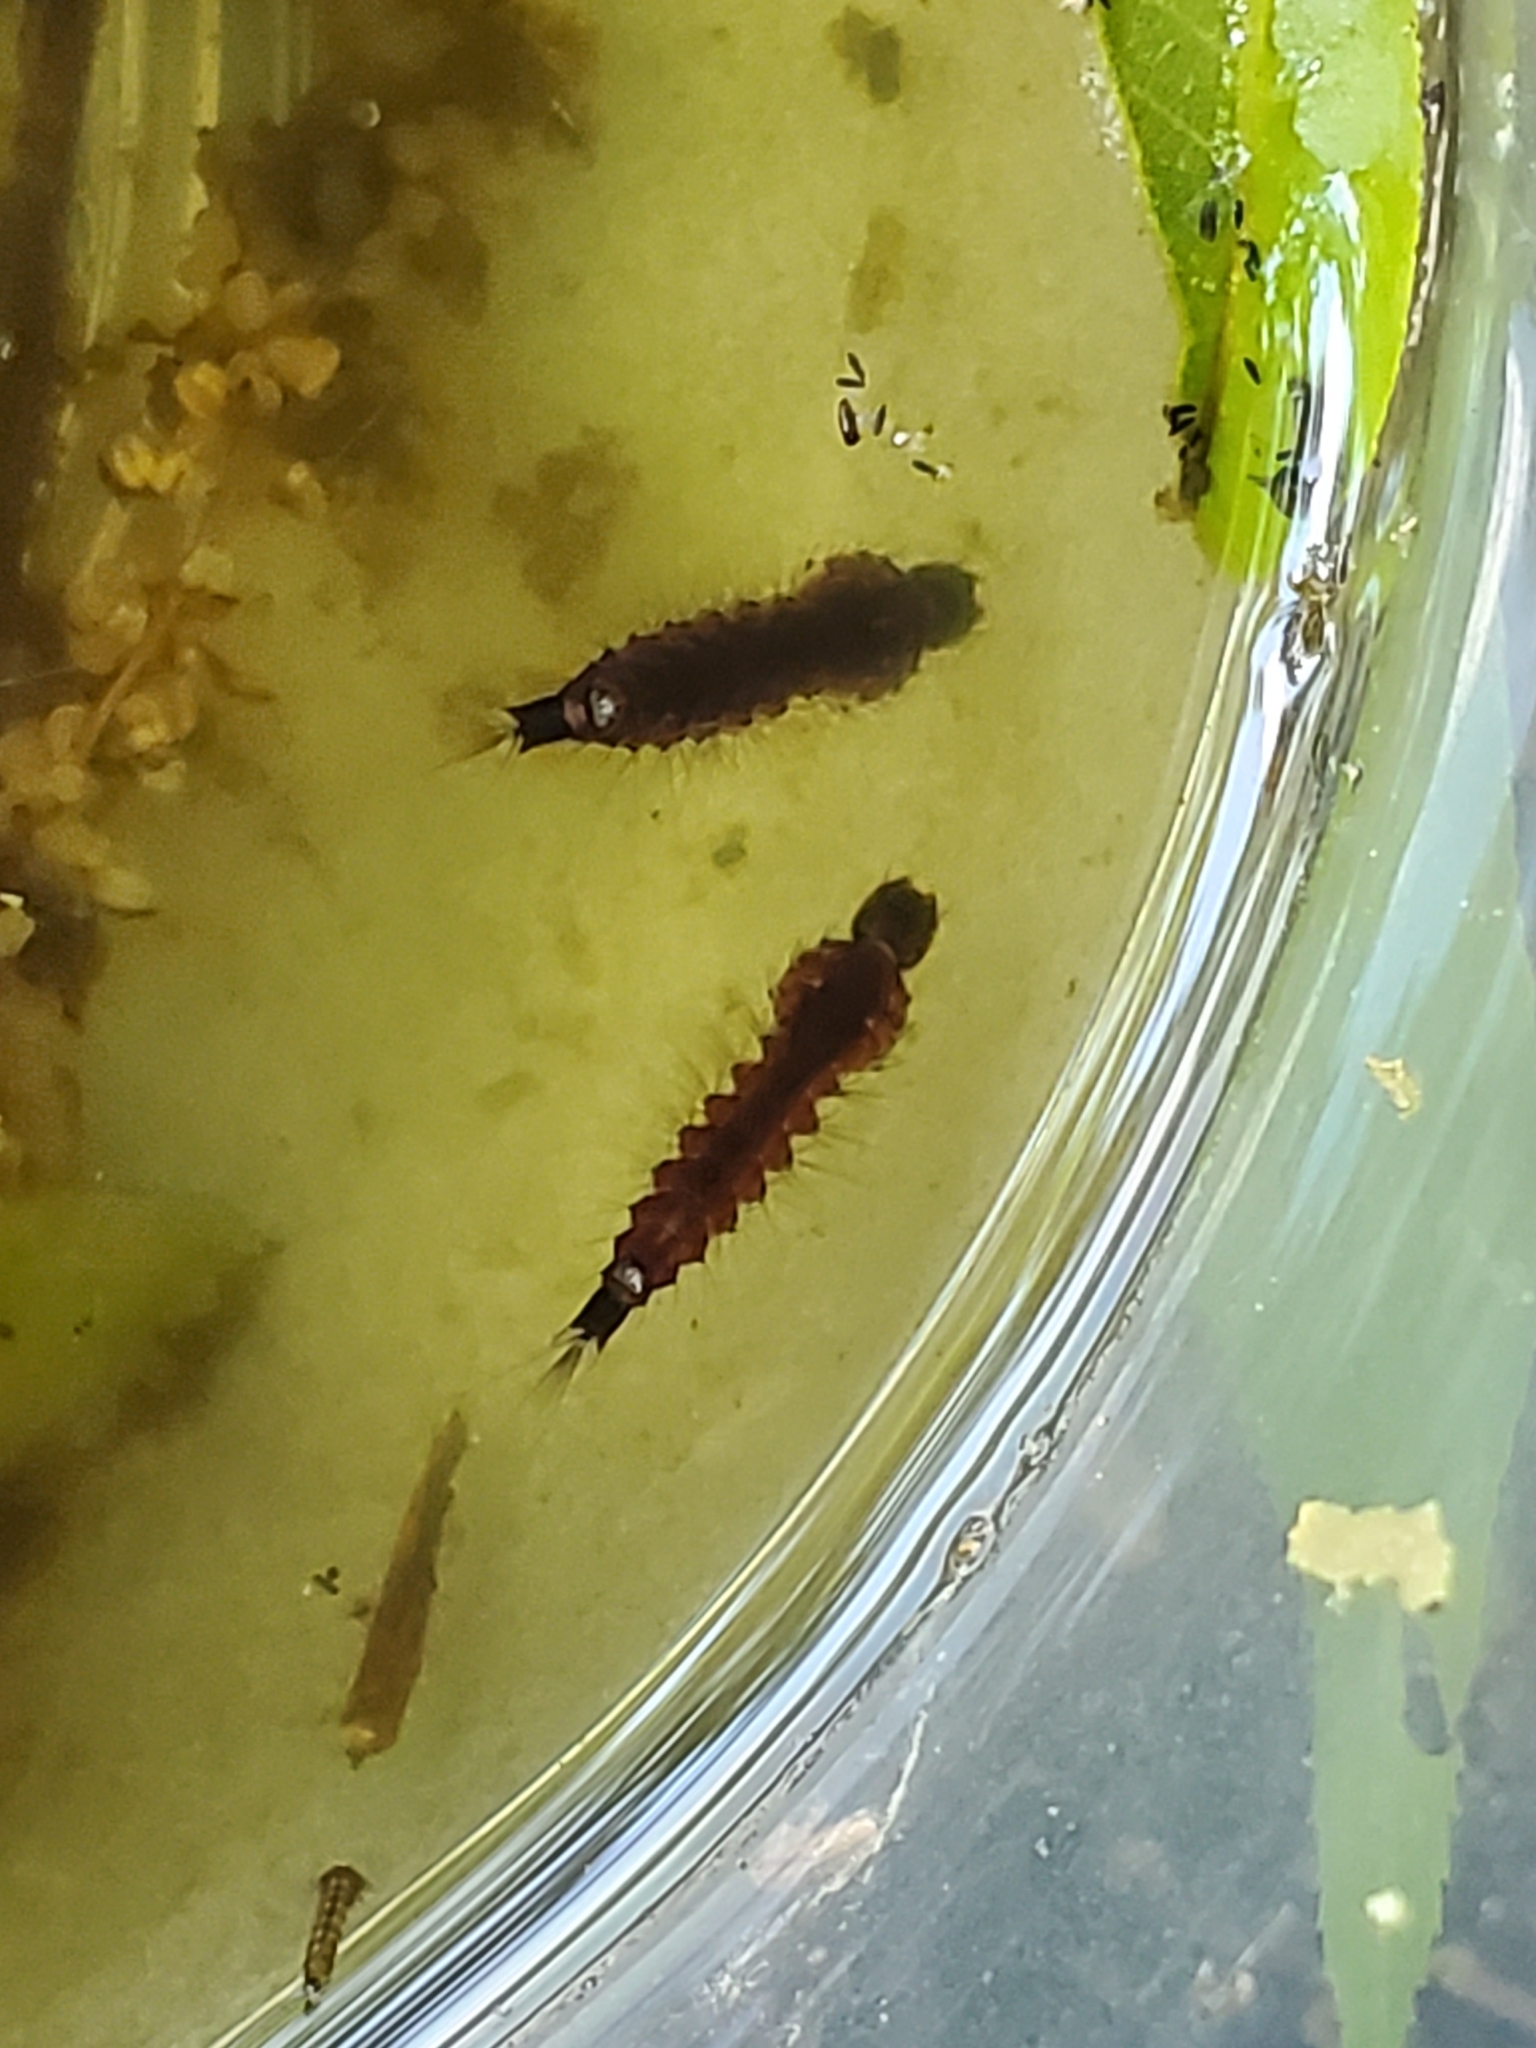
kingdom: Animalia
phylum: Arthropoda
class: Insecta
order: Diptera
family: Culicidae
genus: Toxorhynchites
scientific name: Toxorhynchites rutilus
